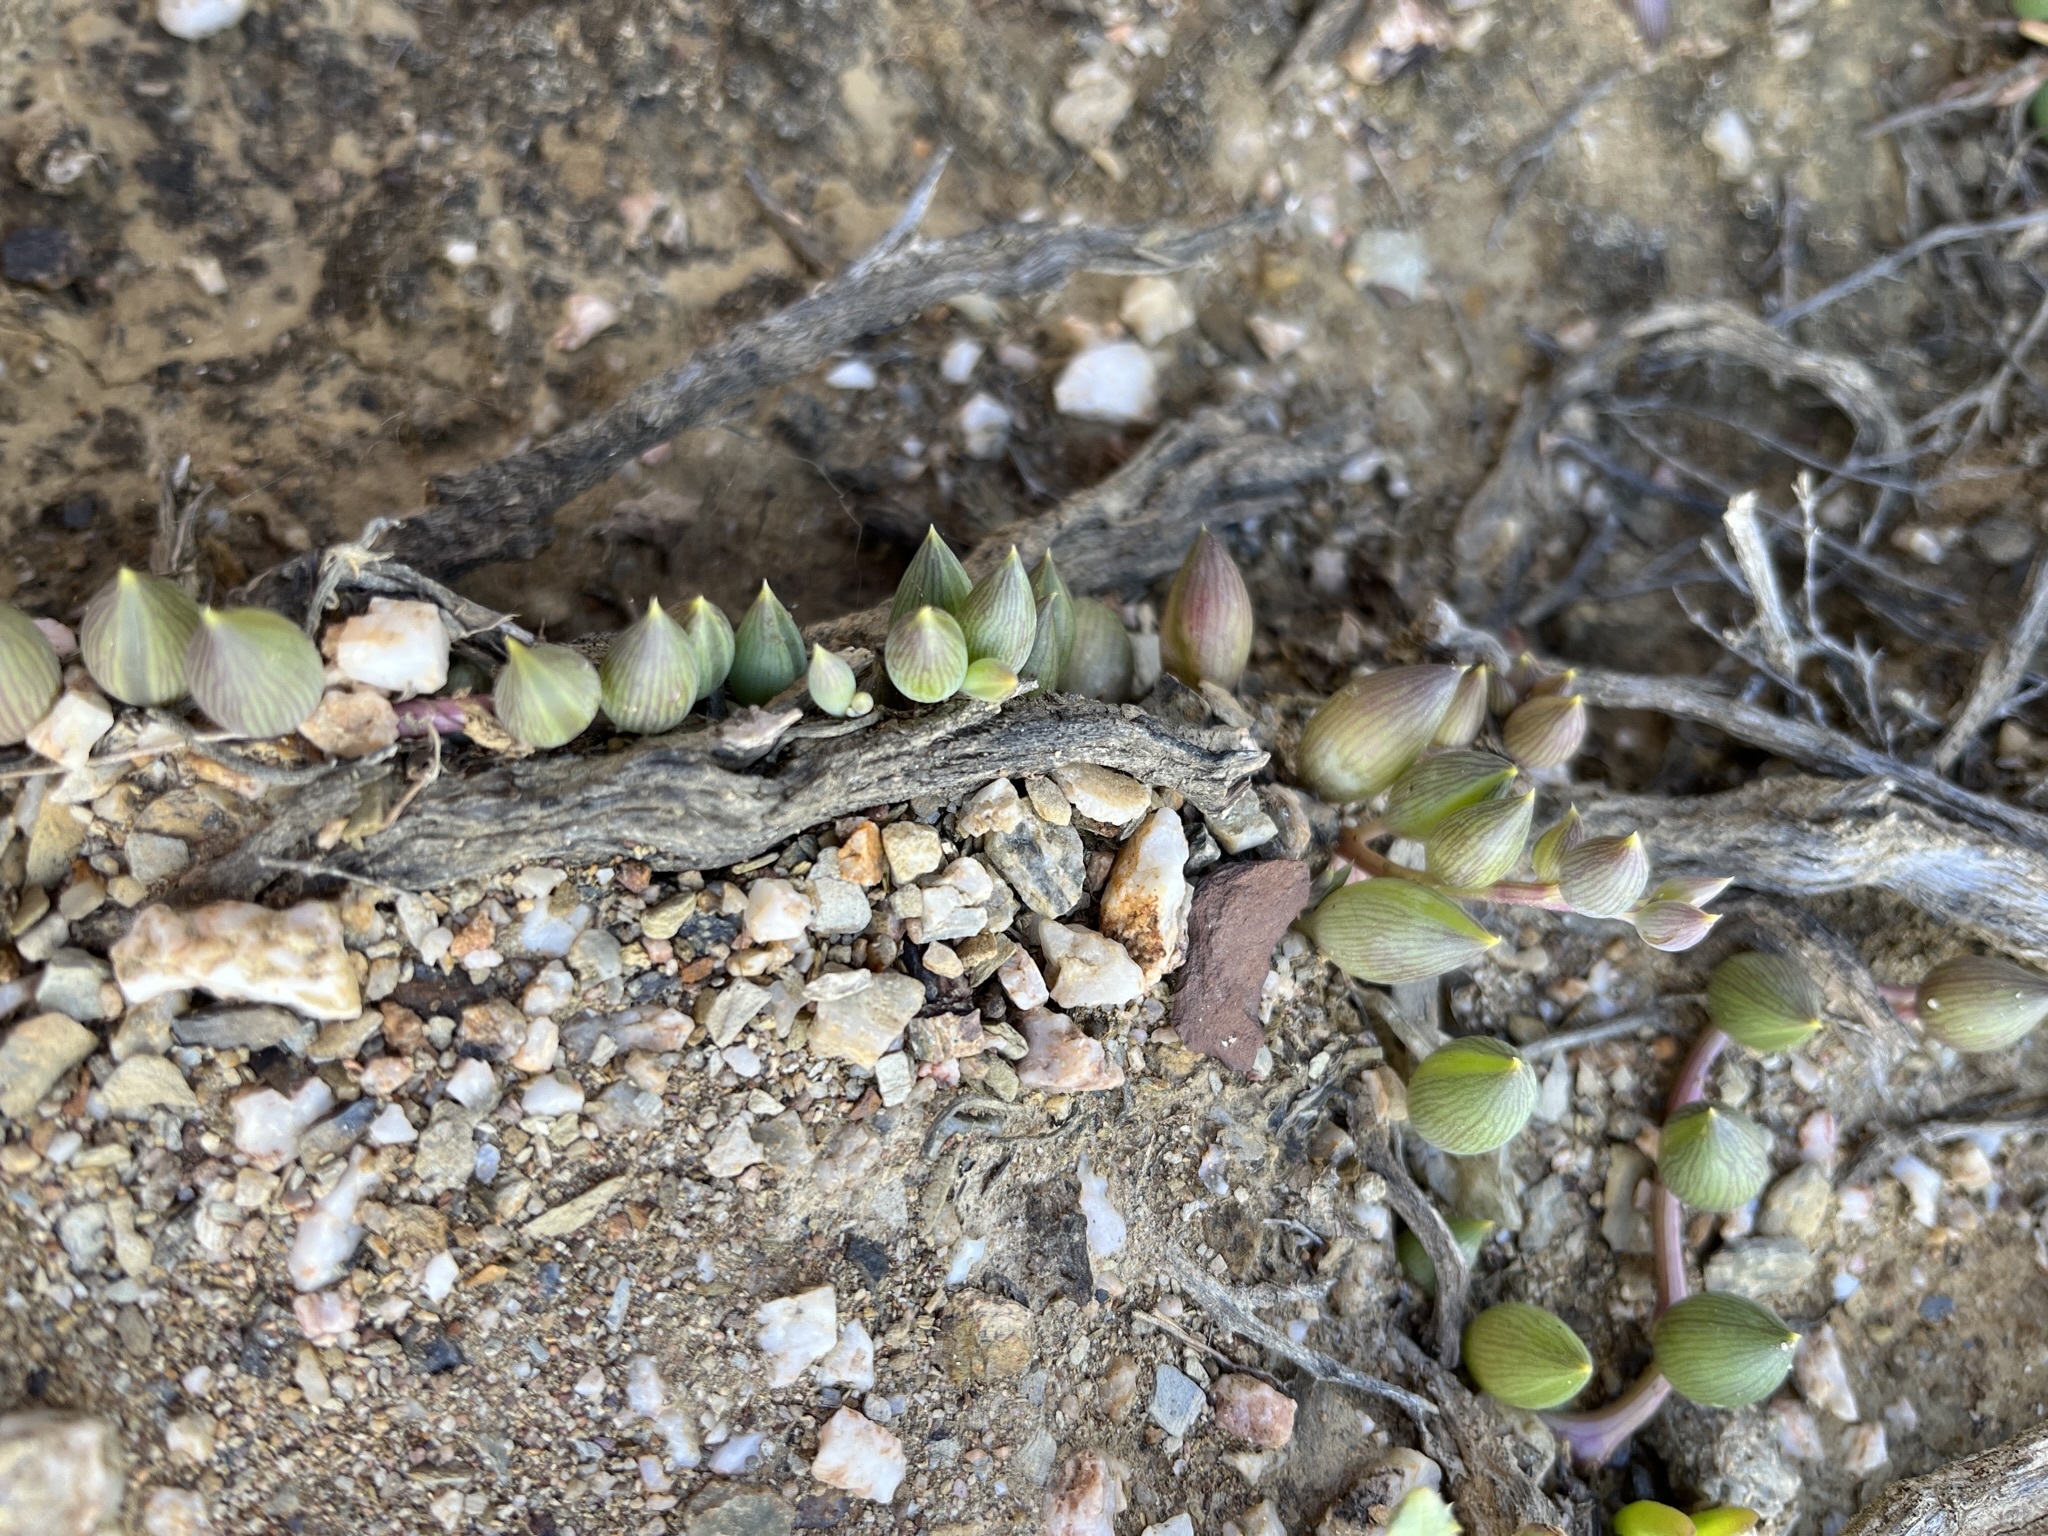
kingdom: Plantae
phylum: Tracheophyta
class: Magnoliopsida
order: Asterales
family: Asteraceae
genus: Curio
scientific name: Curio radicans
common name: Creeping-berry
